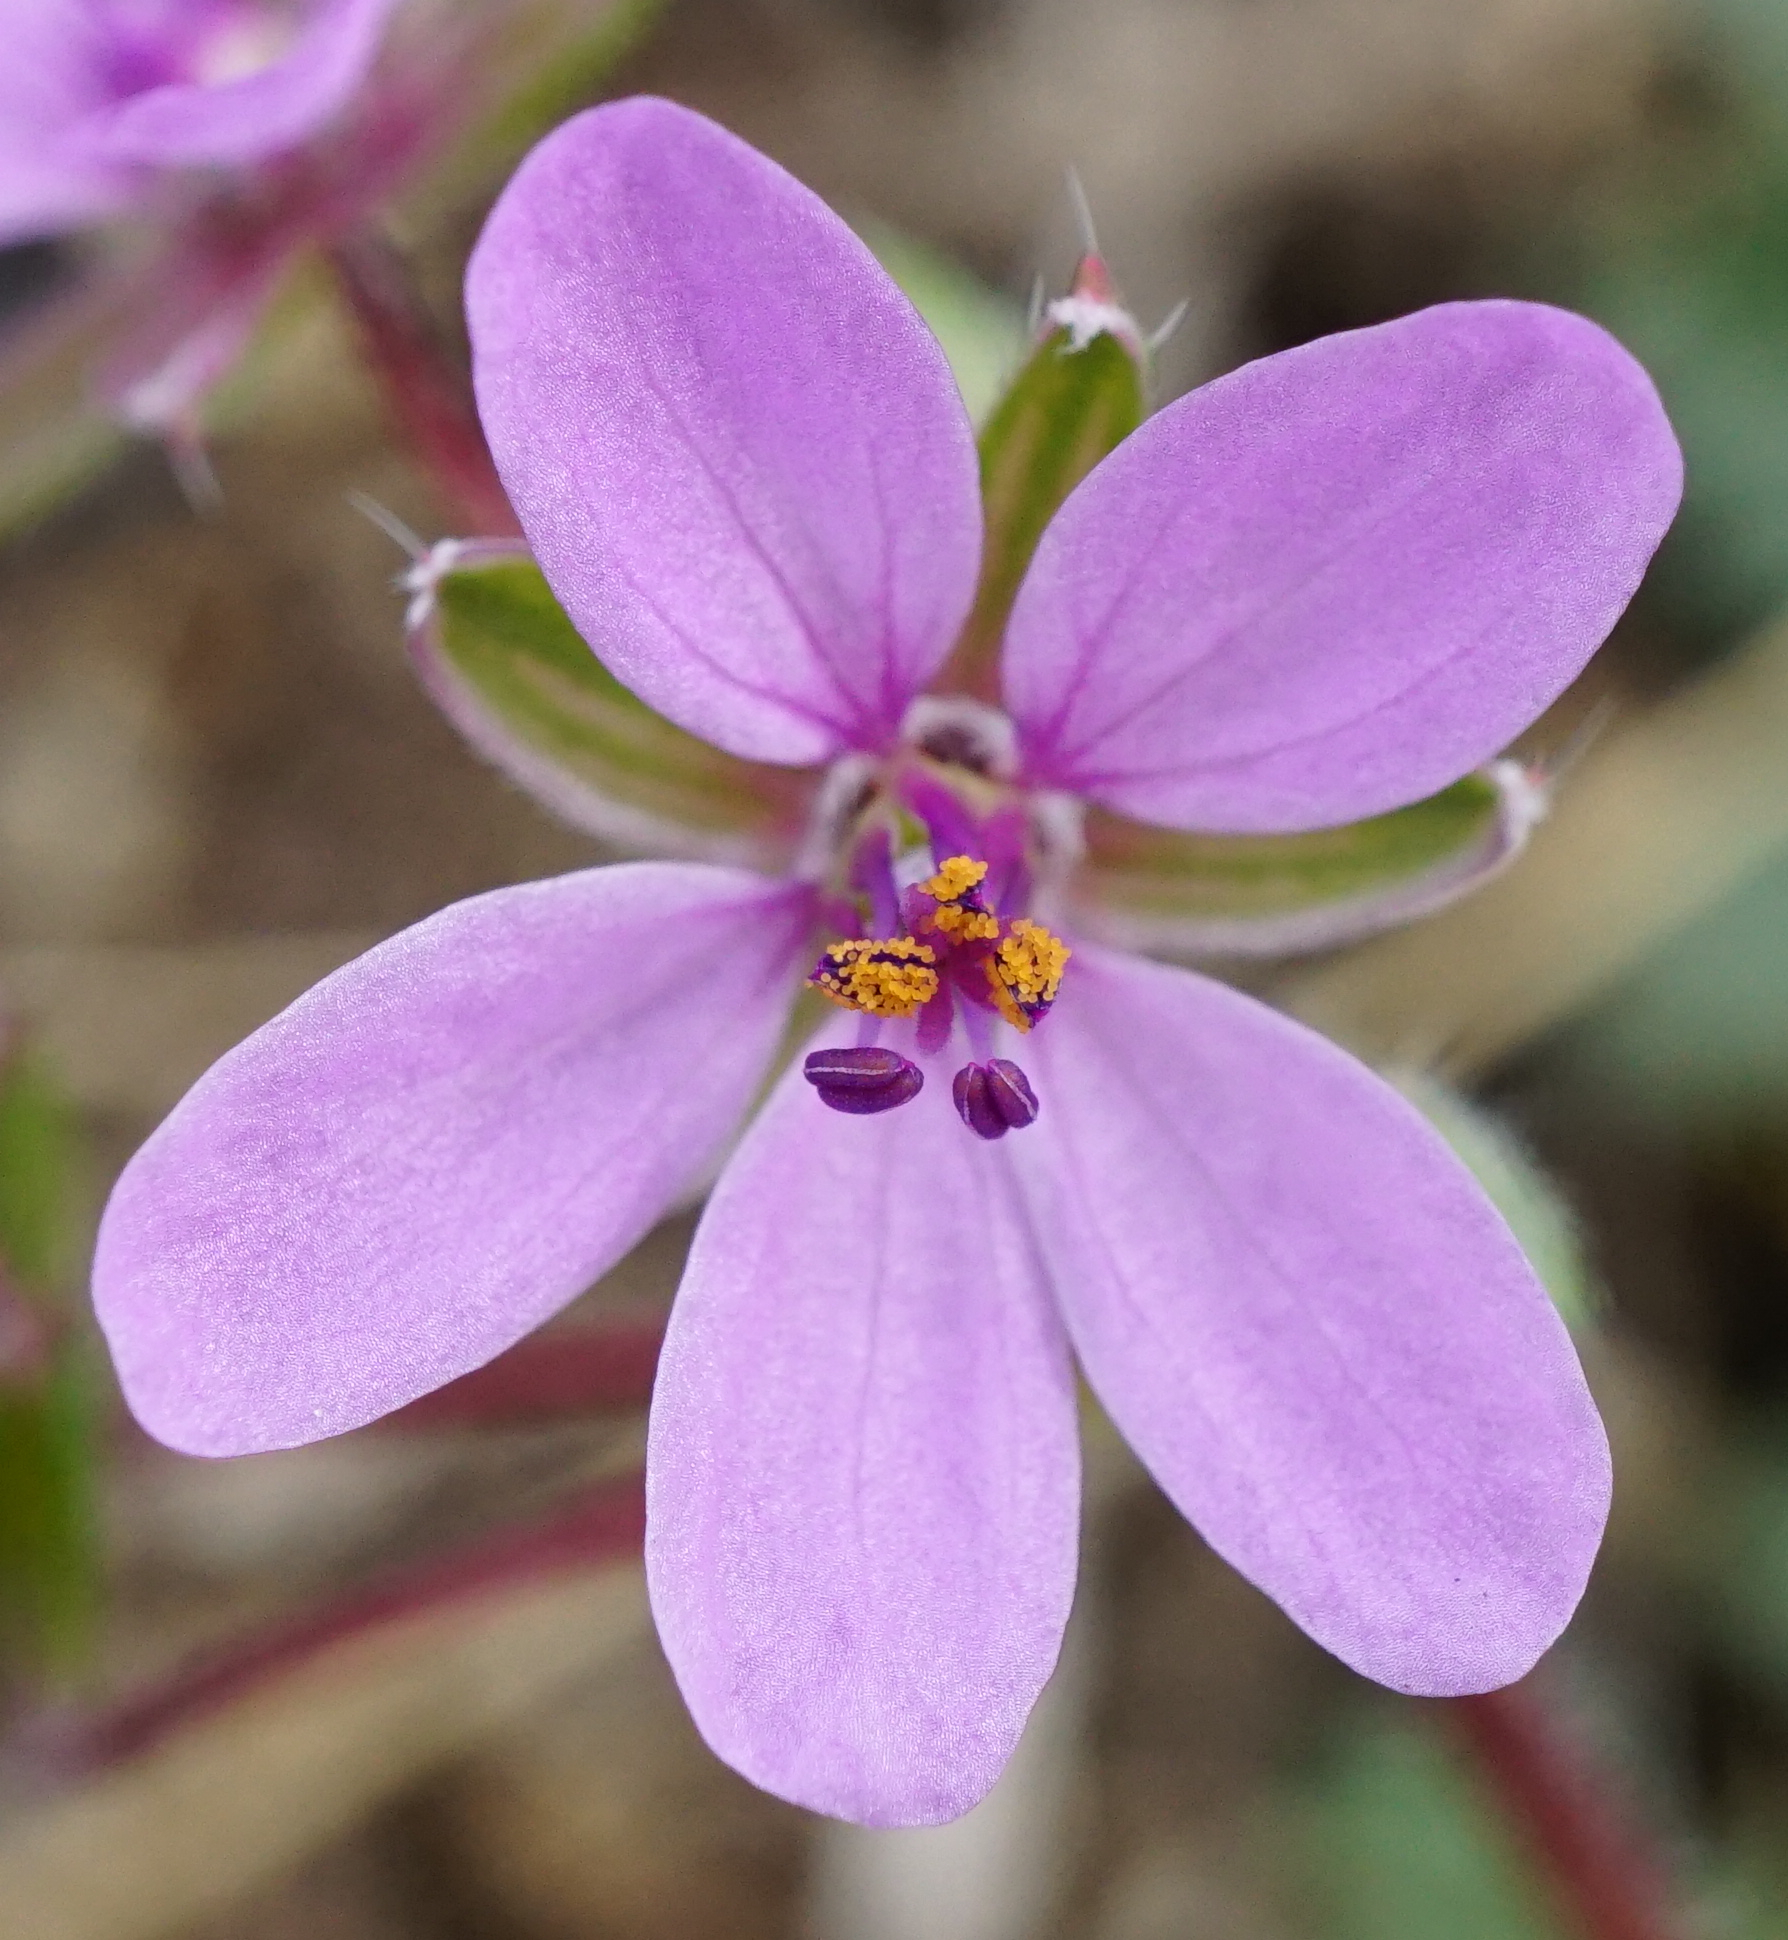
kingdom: Plantae
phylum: Tracheophyta
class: Magnoliopsida
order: Geraniales
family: Geraniaceae
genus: Erodium
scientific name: Erodium cicutarium
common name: Common stork's-bill
